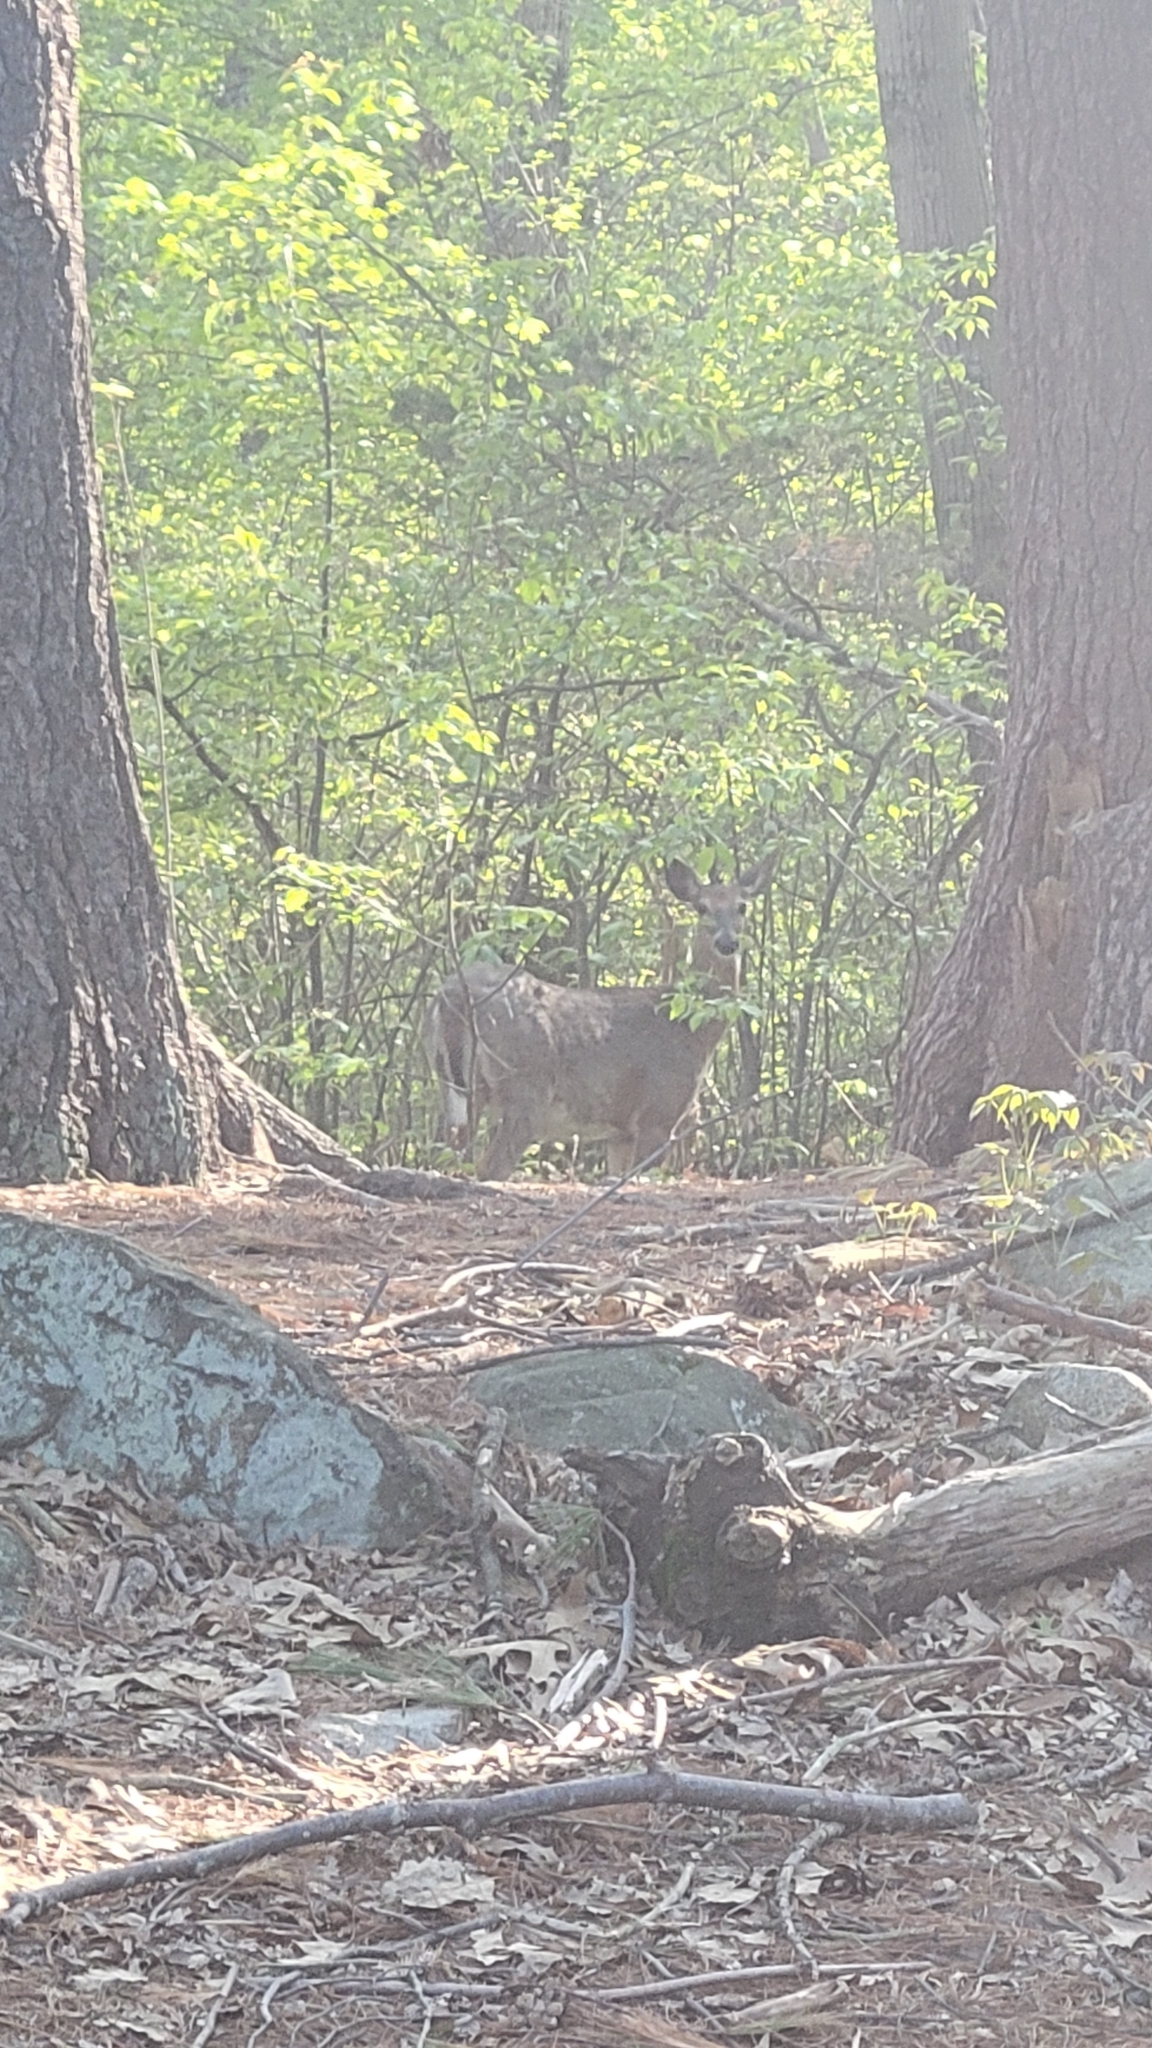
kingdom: Animalia
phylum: Chordata
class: Mammalia
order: Artiodactyla
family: Cervidae
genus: Odocoileus
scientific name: Odocoileus virginianus
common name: White-tailed deer
